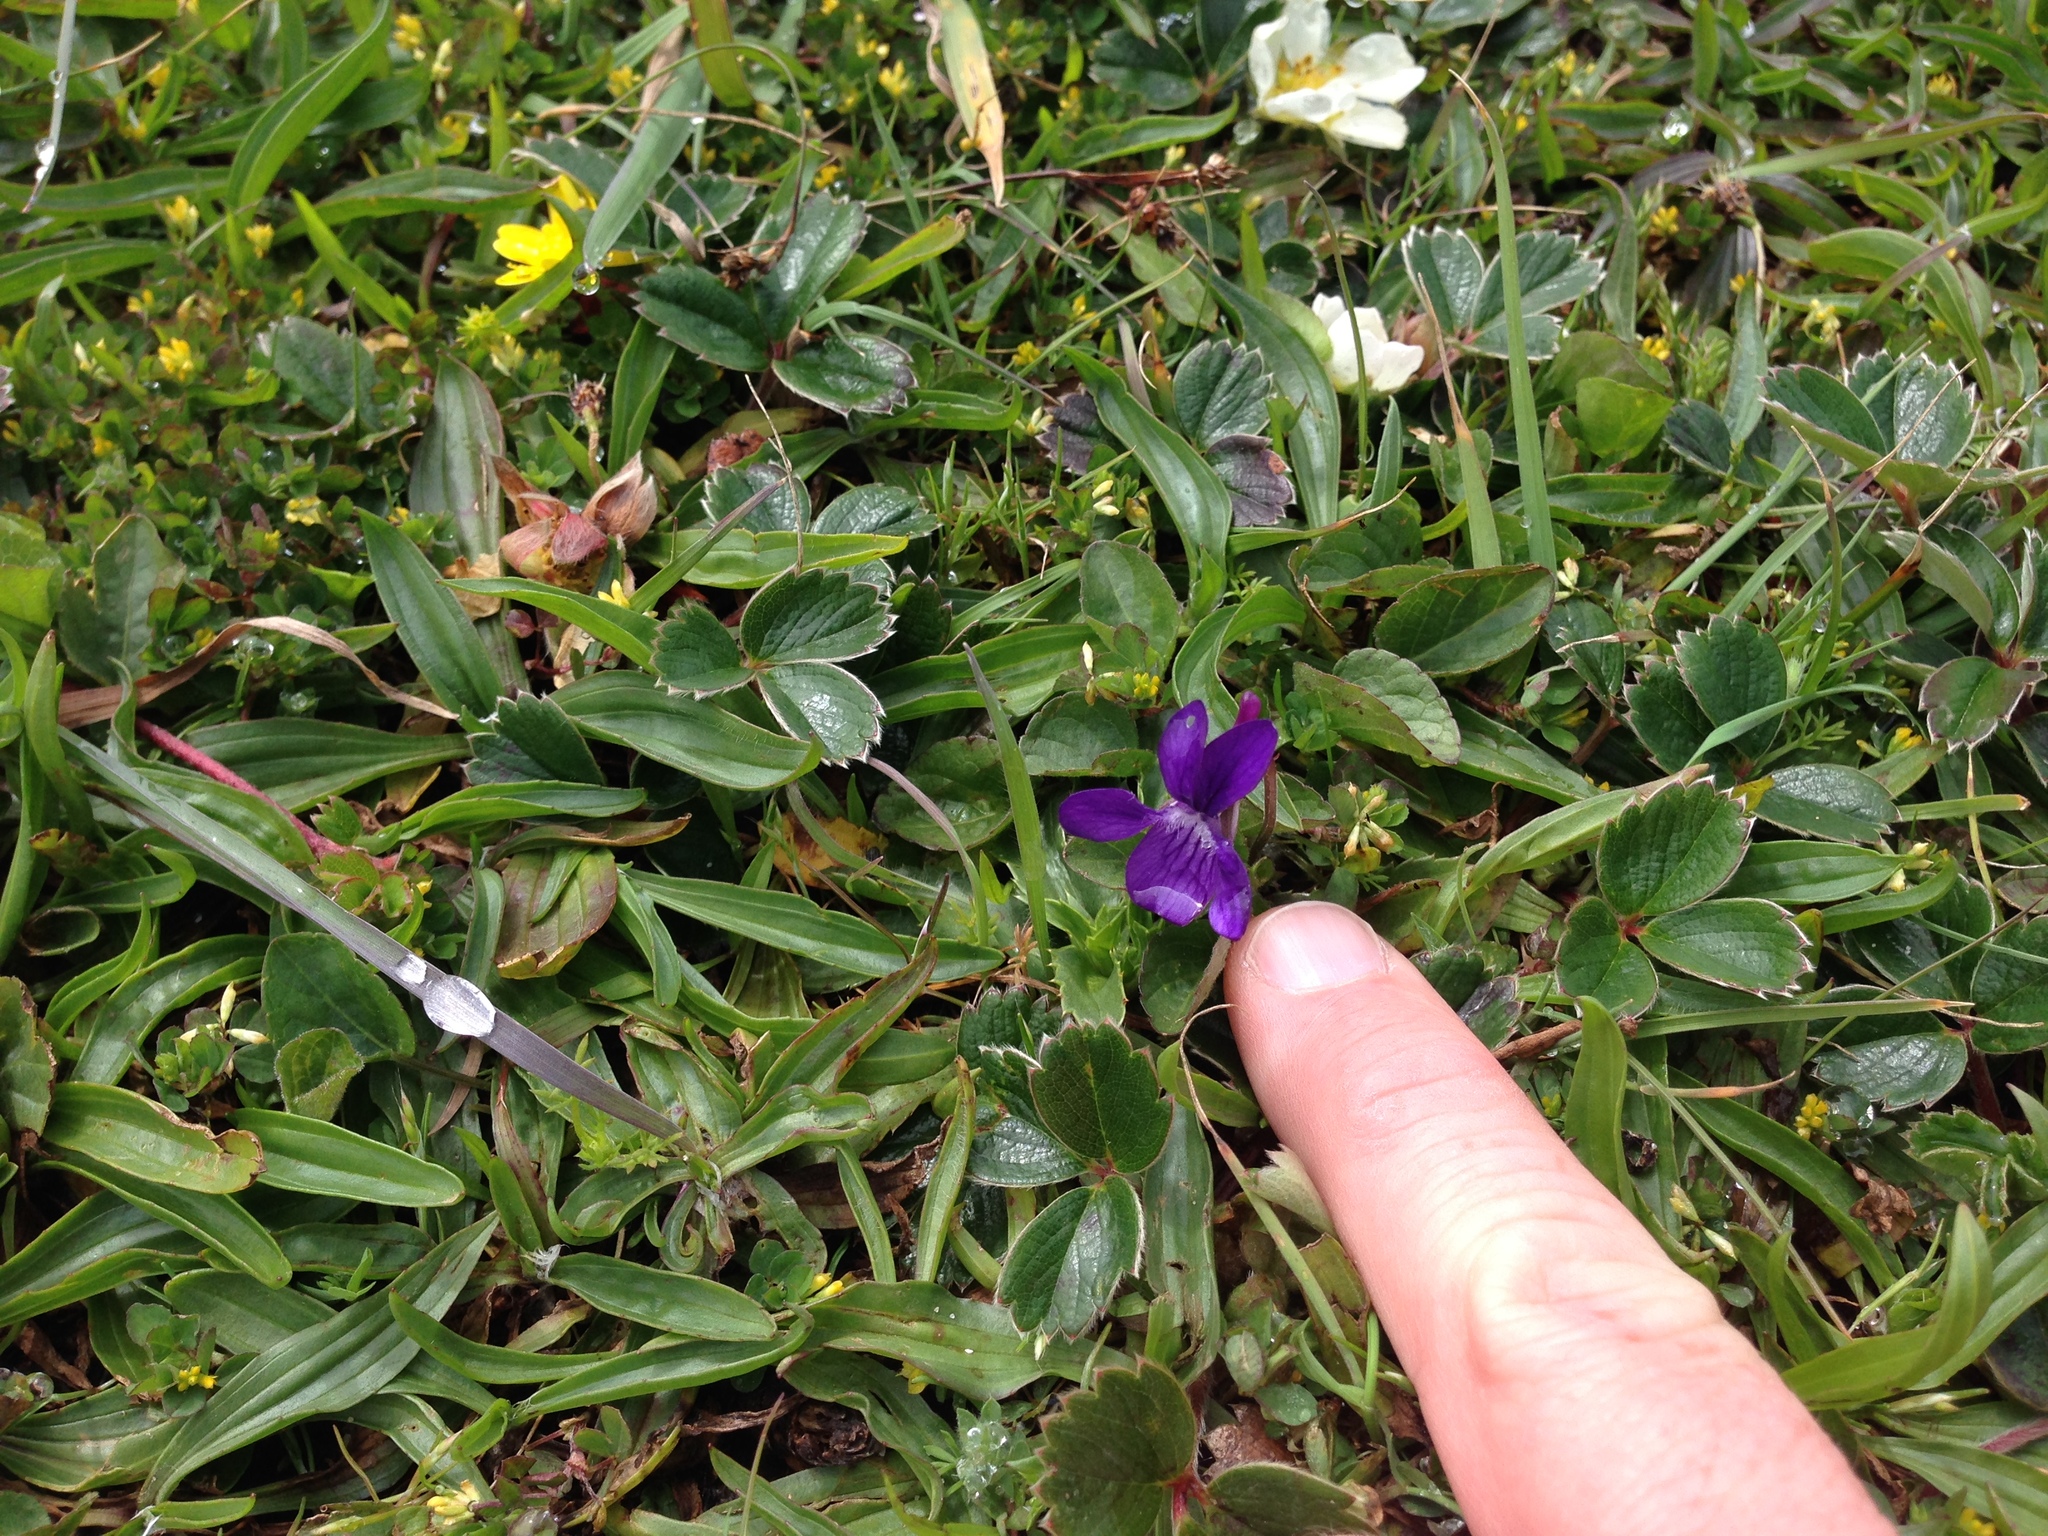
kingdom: Plantae
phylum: Tracheophyta
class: Magnoliopsida
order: Malpighiales
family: Violaceae
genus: Viola
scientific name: Viola adunca
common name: Sand violet
